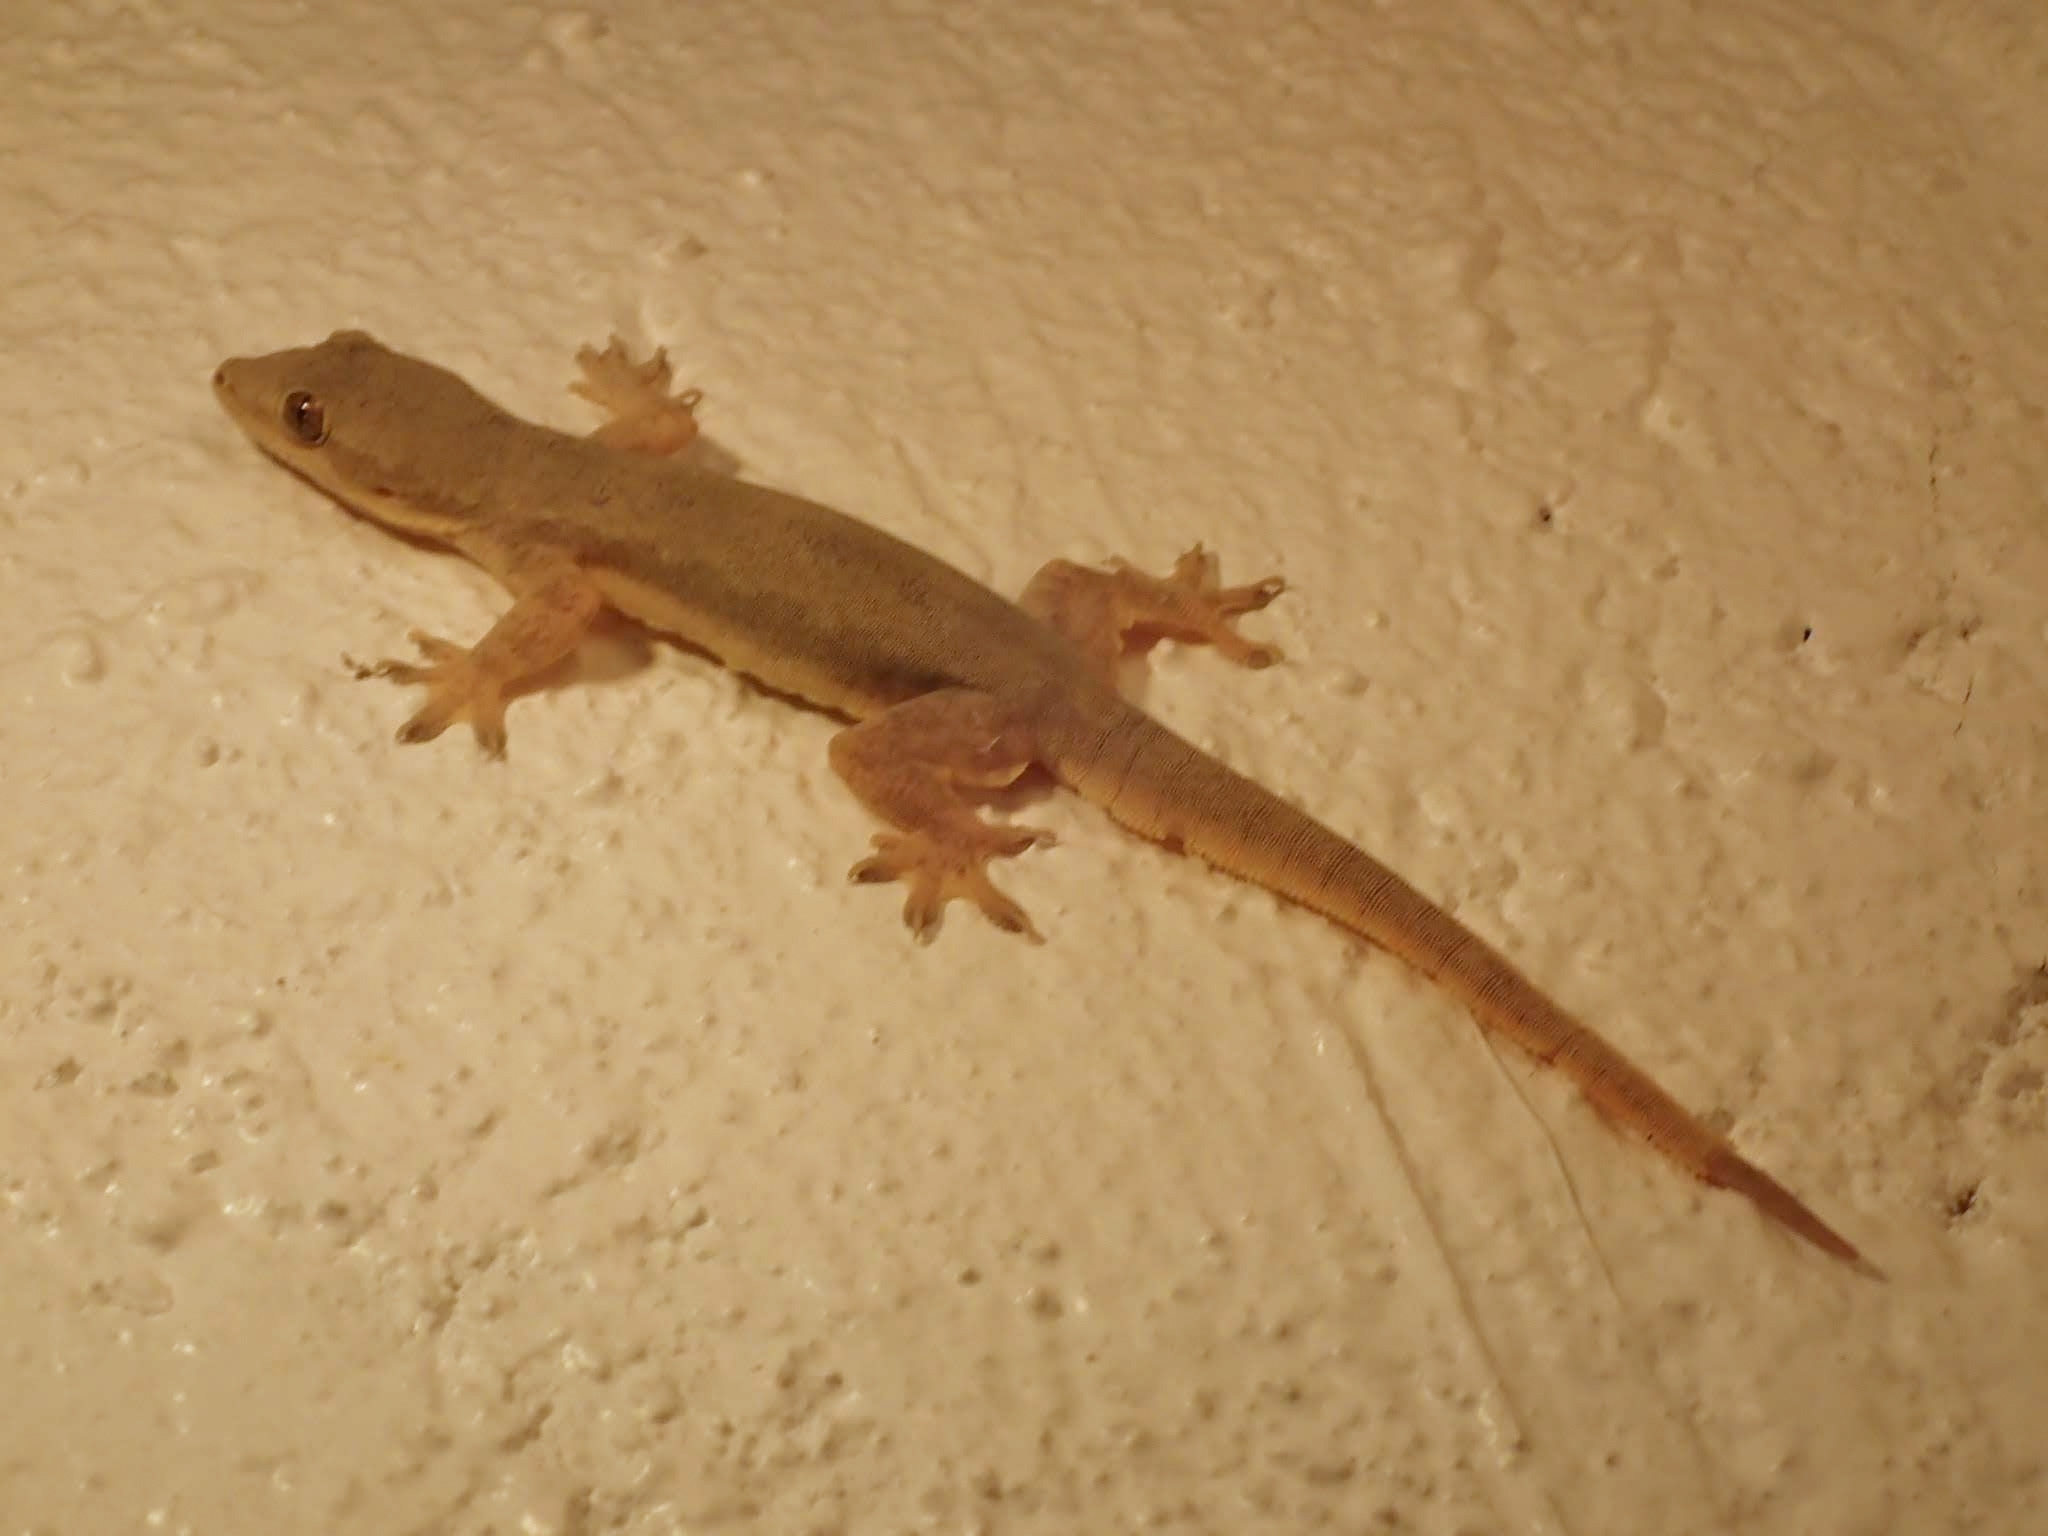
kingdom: Animalia
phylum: Chordata
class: Squamata
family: Gekkonidae
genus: Hemidactylus
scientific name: Hemidactylus platyurus
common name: Flat-tailed house gecko
